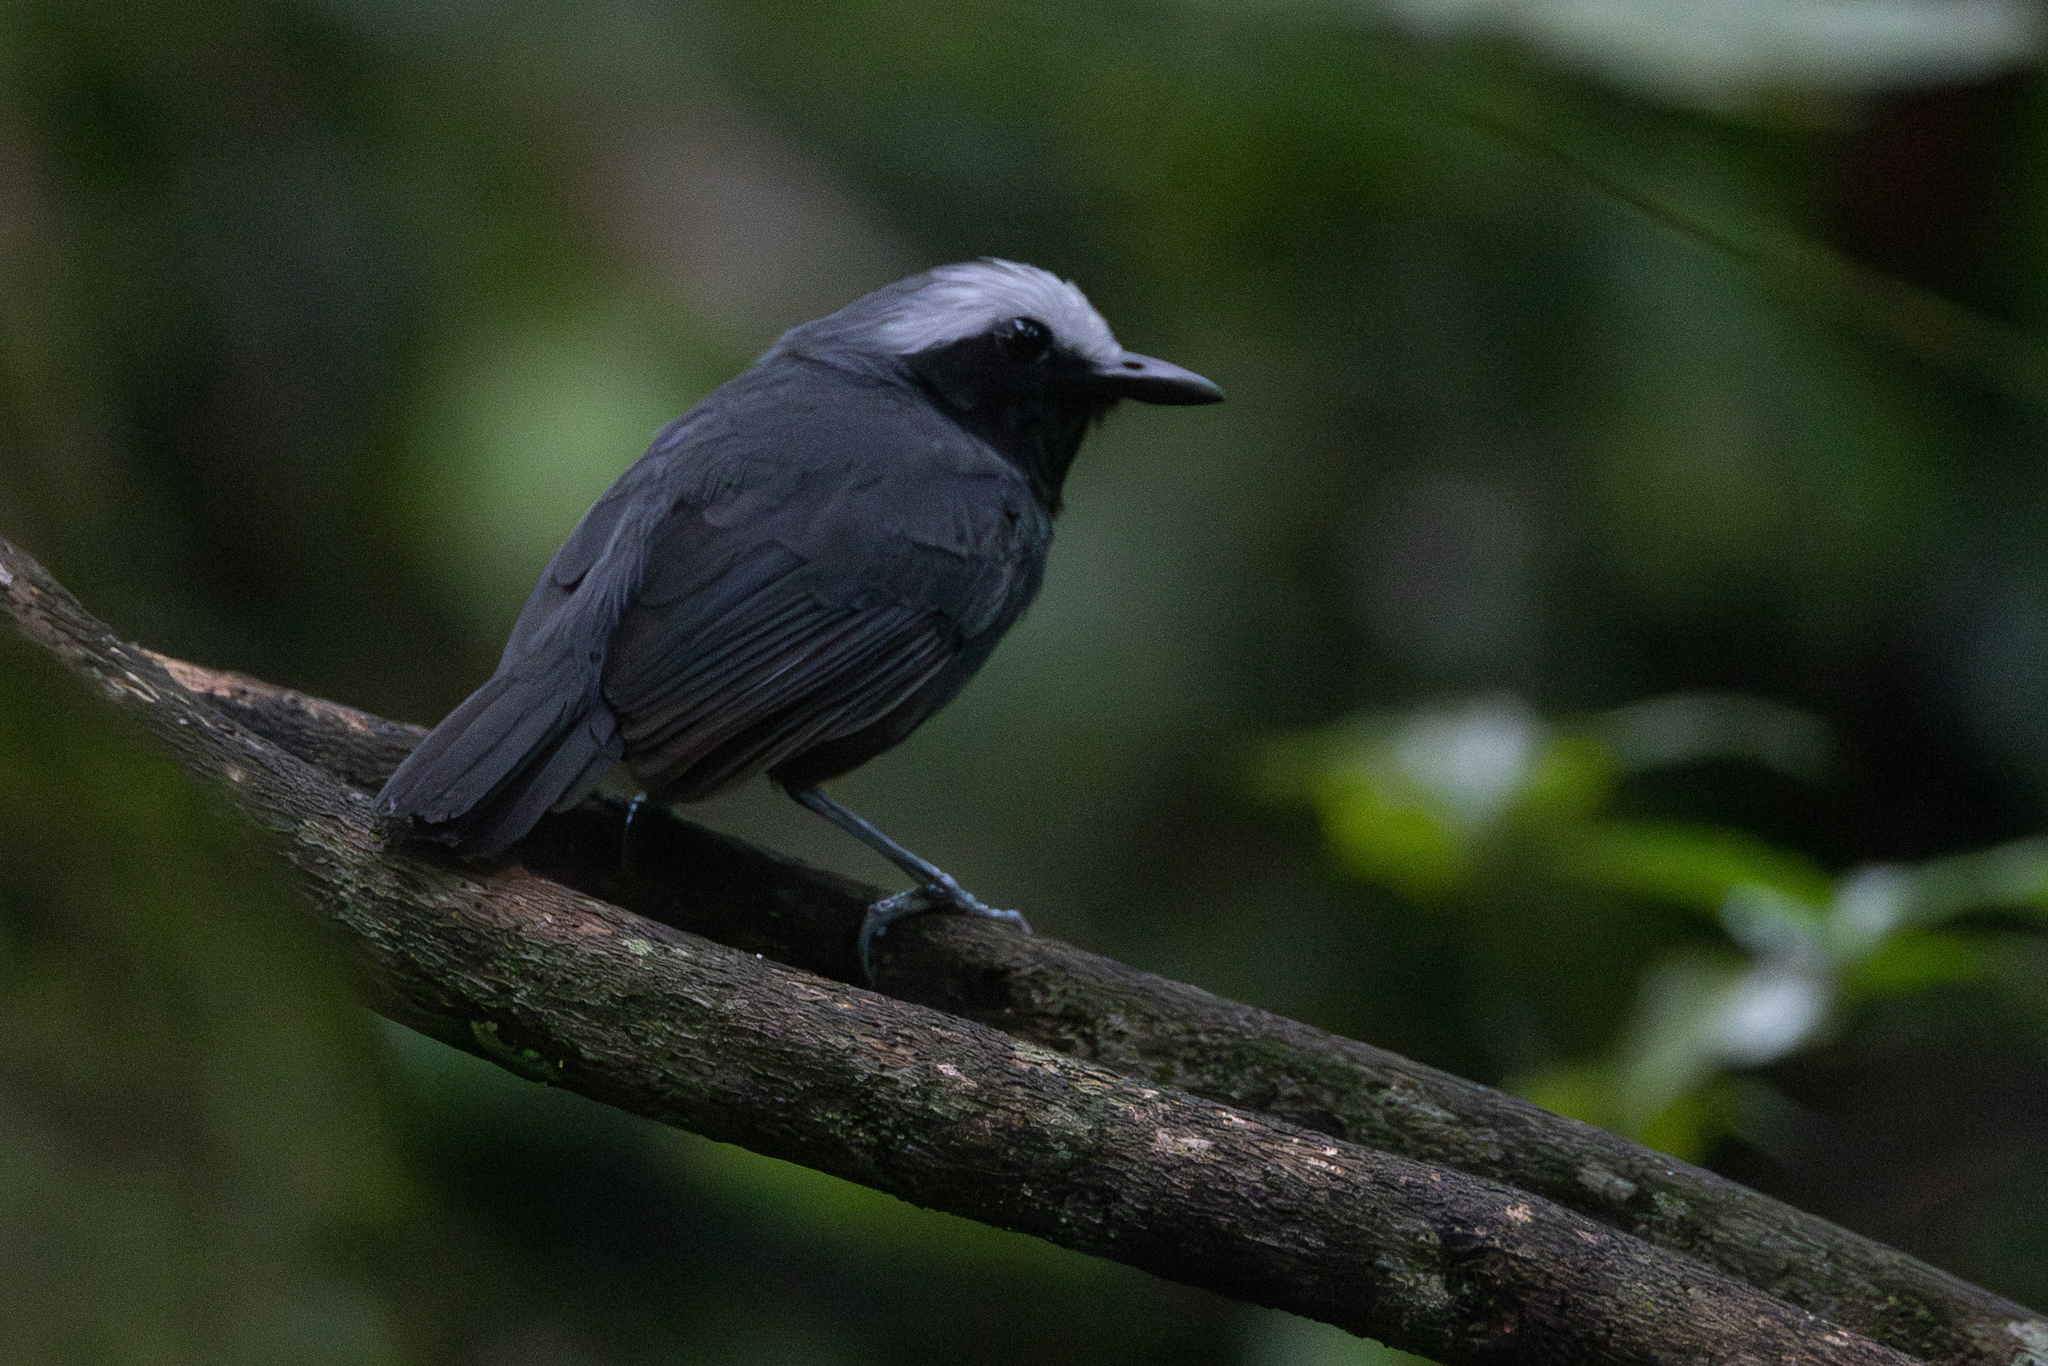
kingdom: Animalia
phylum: Chordata
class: Aves
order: Passeriformes
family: Thamnophilidae
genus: Myrmoborus
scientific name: Myrmoborus leucophrys
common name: White-browed antbird
